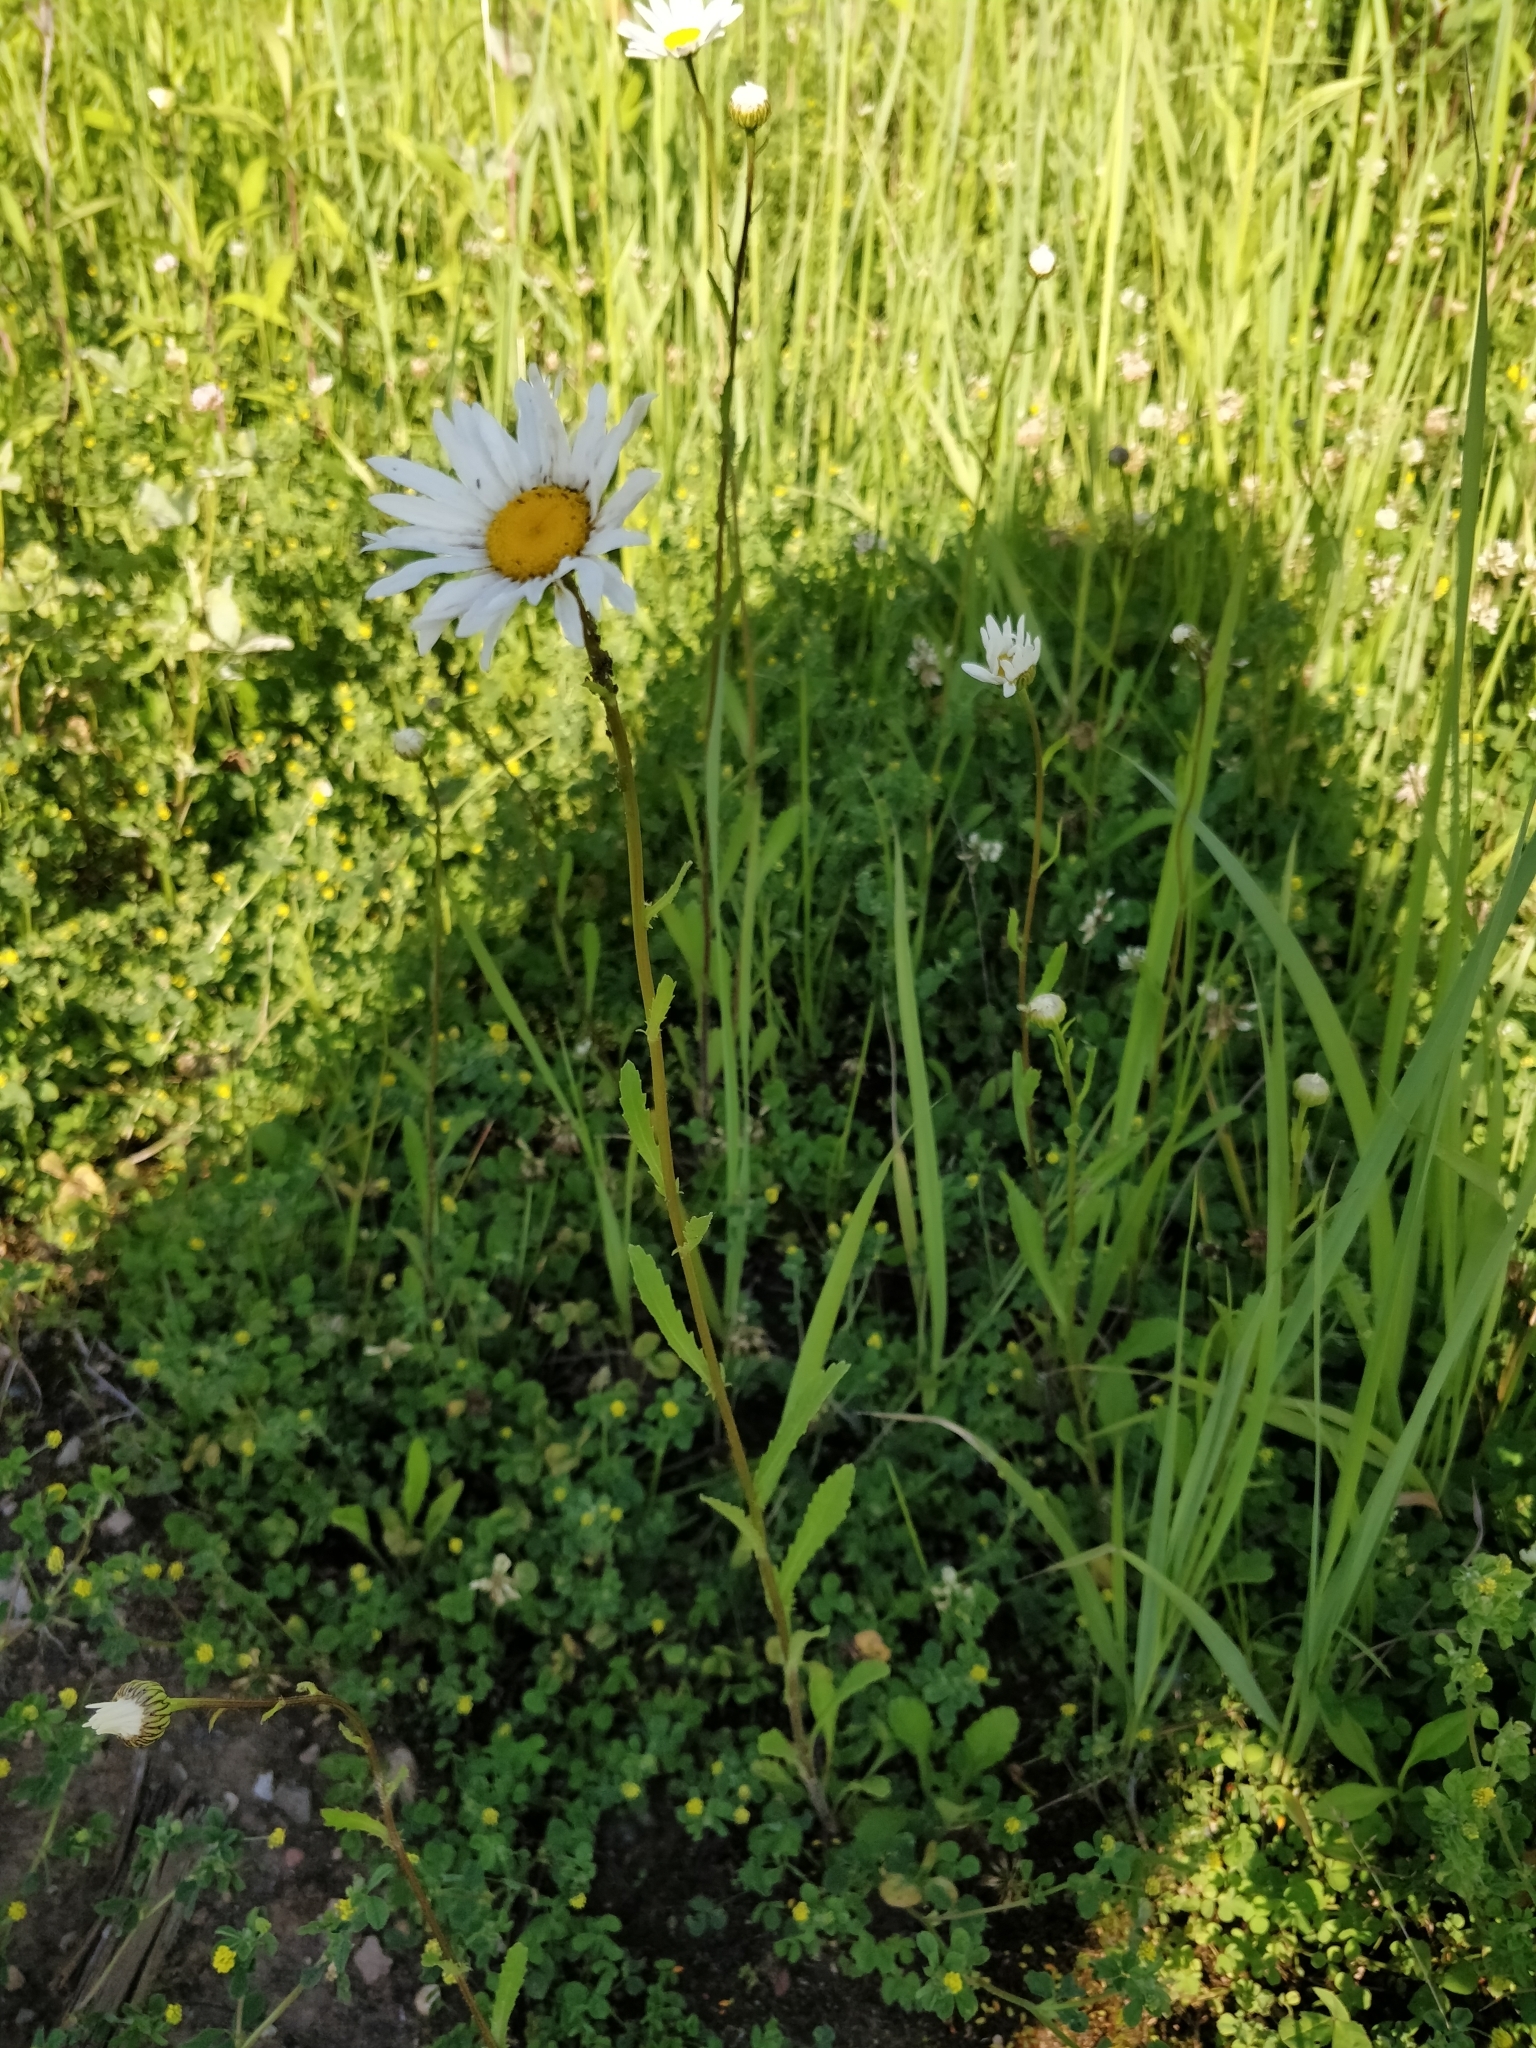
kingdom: Plantae
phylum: Tracheophyta
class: Magnoliopsida
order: Asterales
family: Asteraceae
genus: Leucanthemum
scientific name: Leucanthemum vulgare
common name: Oxeye daisy
